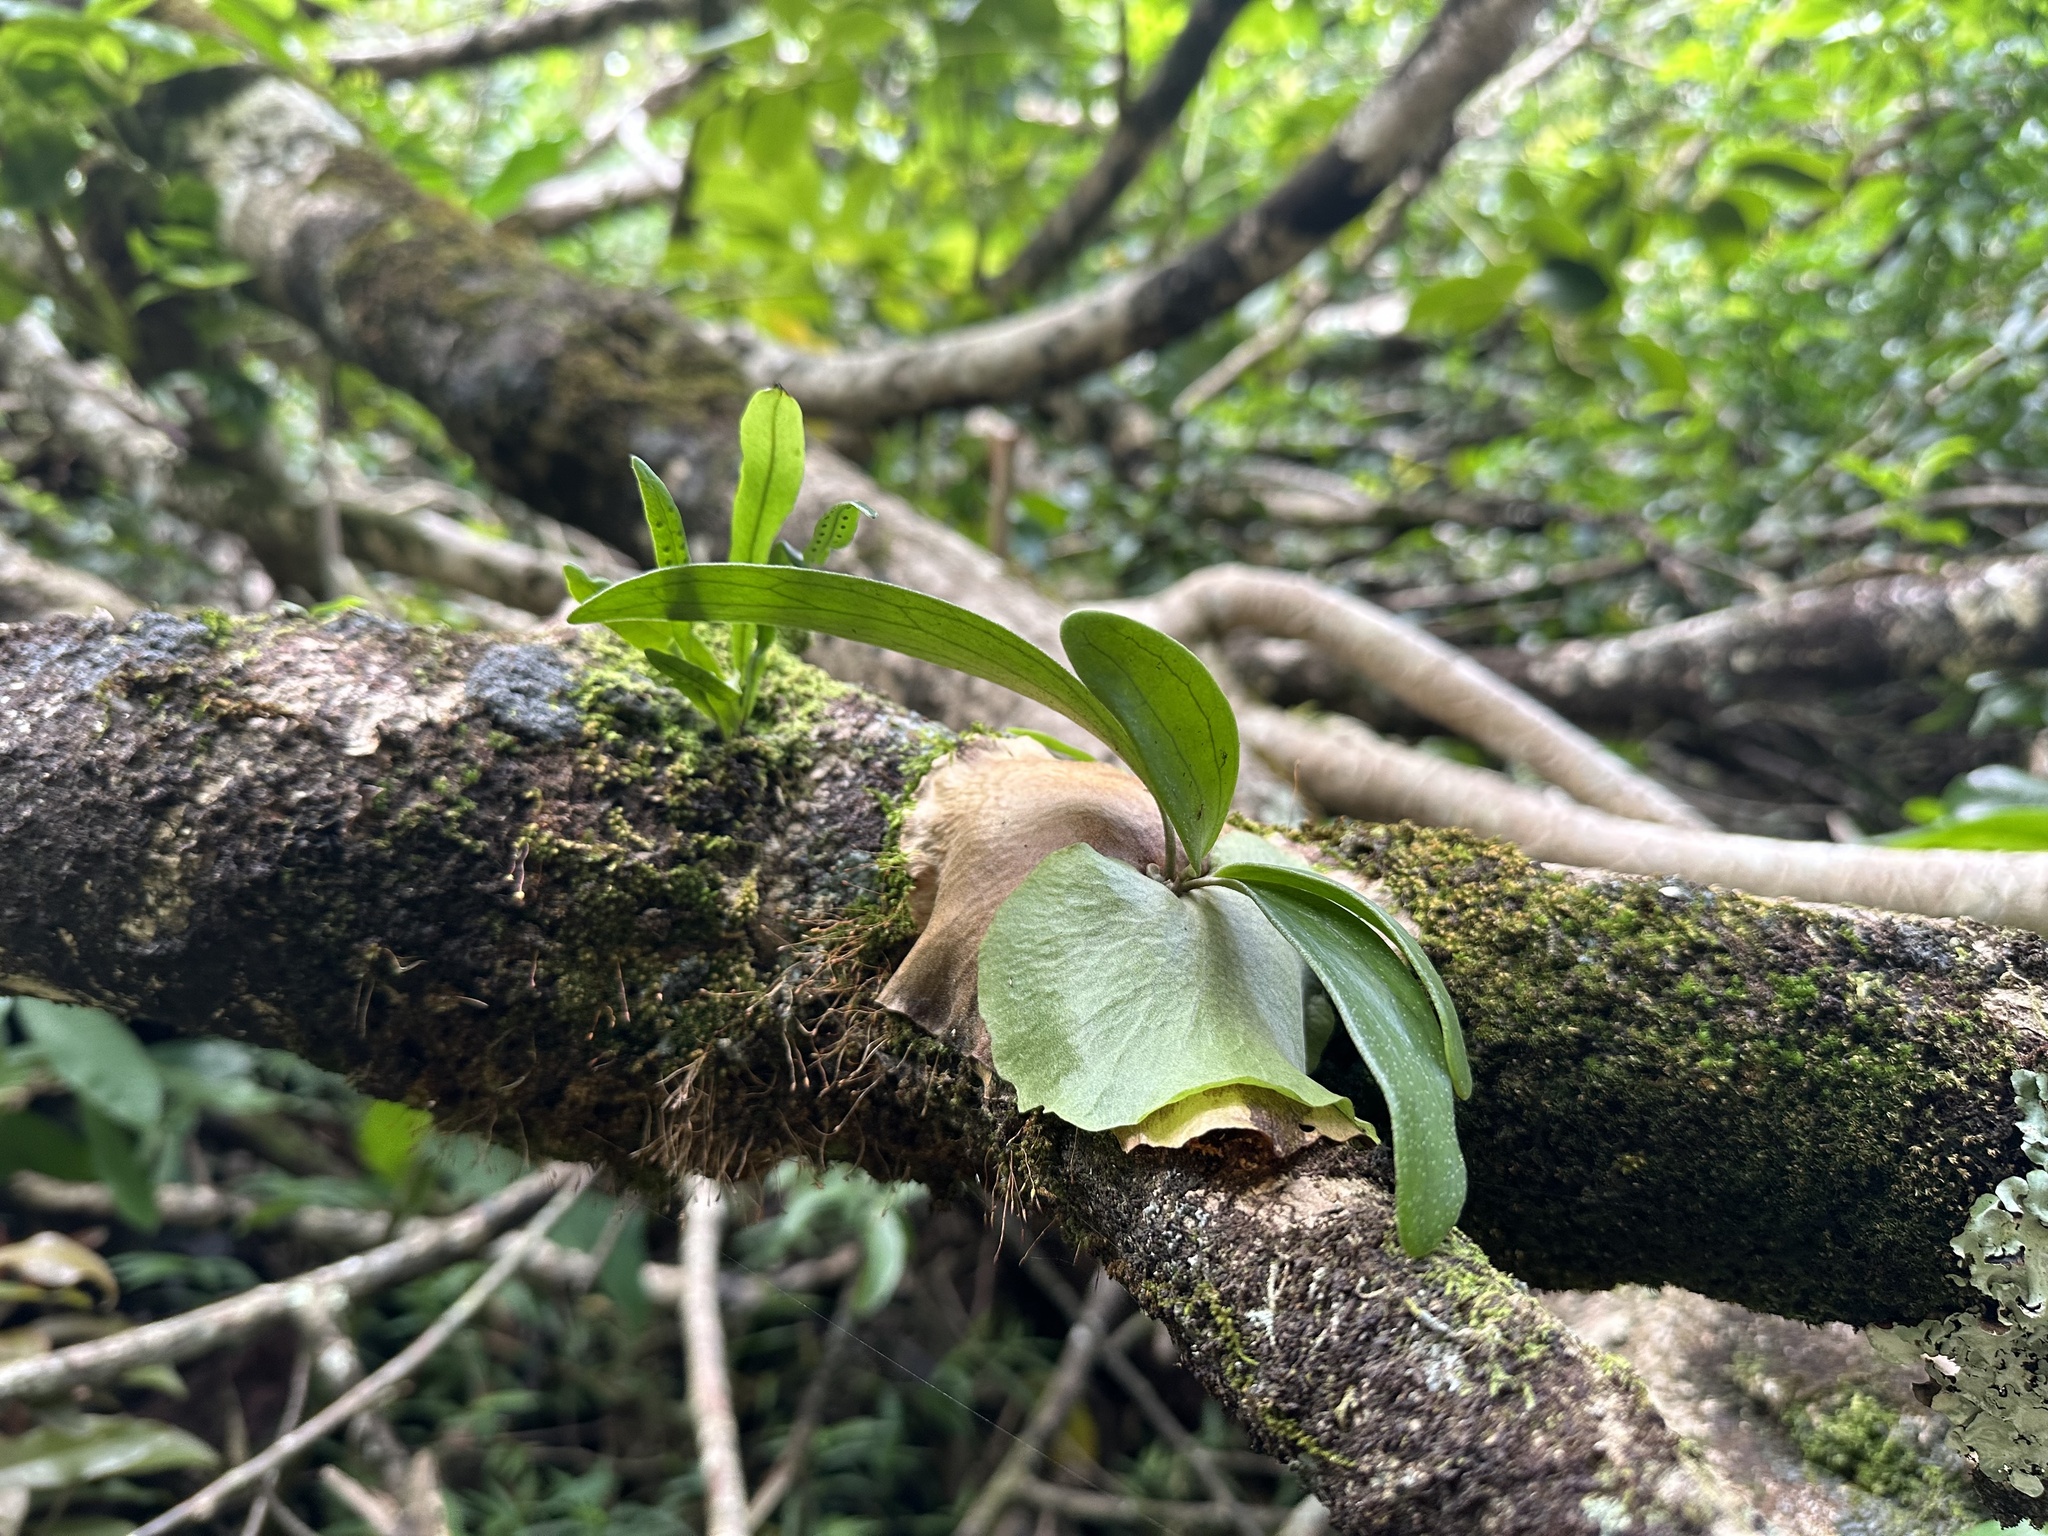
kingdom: Plantae
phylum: Tracheophyta
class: Polypodiopsida
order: Polypodiales
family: Polypodiaceae
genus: Platycerium
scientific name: Platycerium bifurcatum
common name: Elkhorn fern
